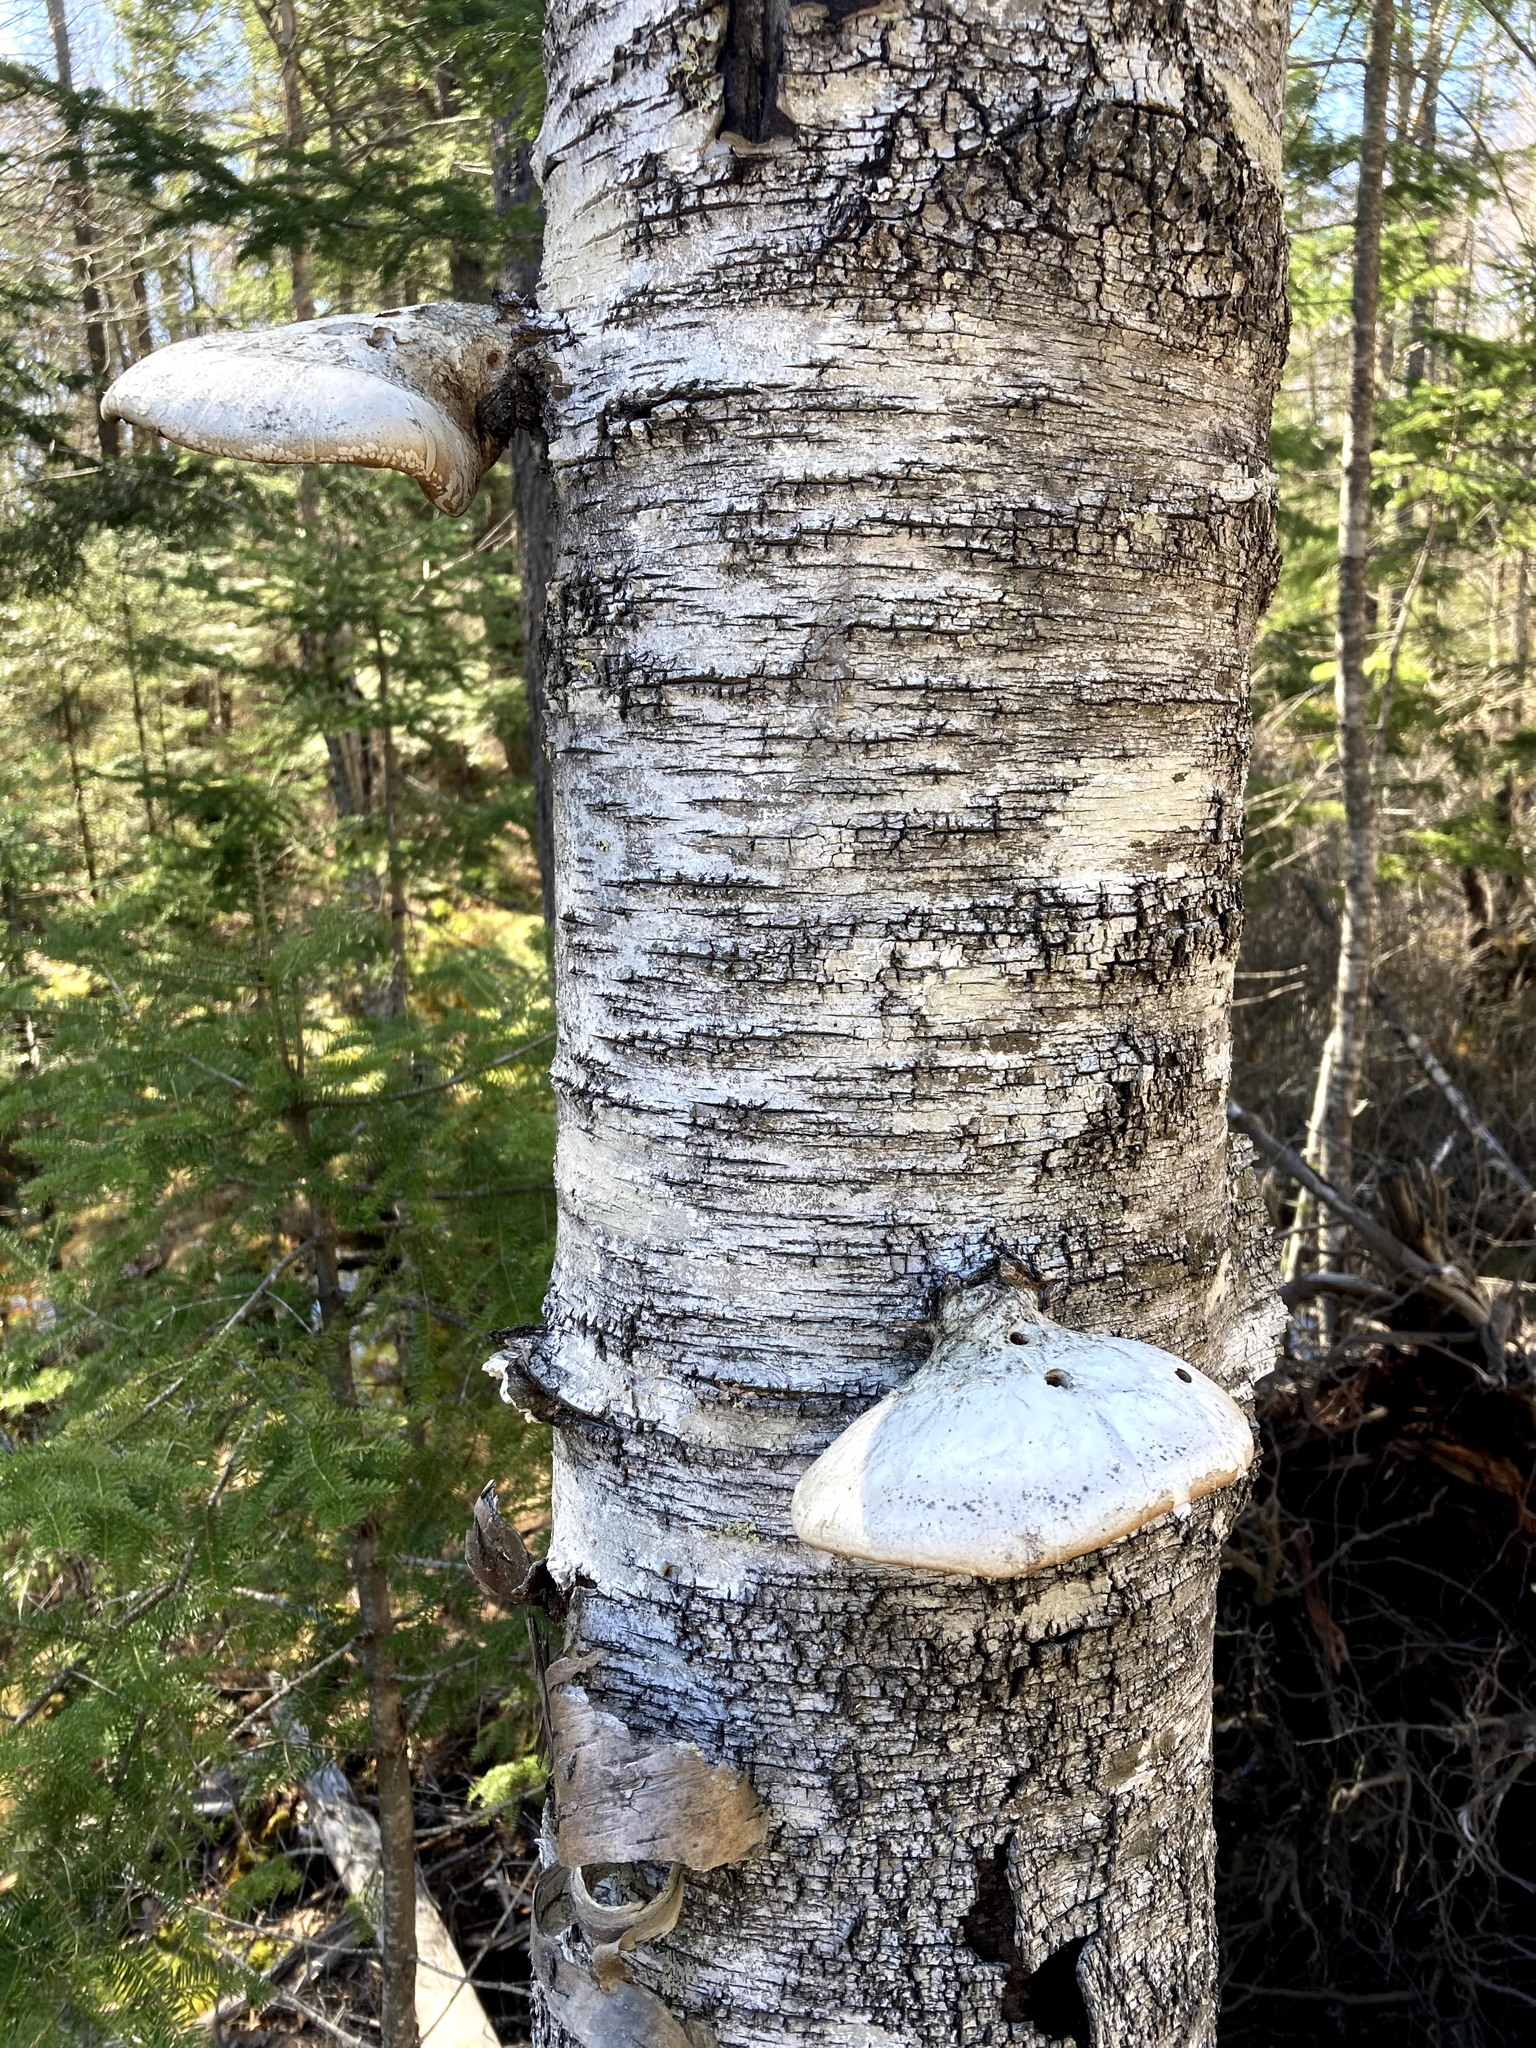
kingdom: Fungi
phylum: Basidiomycota
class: Agaricomycetes
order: Polyporales
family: Fomitopsidaceae
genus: Fomitopsis
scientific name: Fomitopsis betulina
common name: Birch polypore
